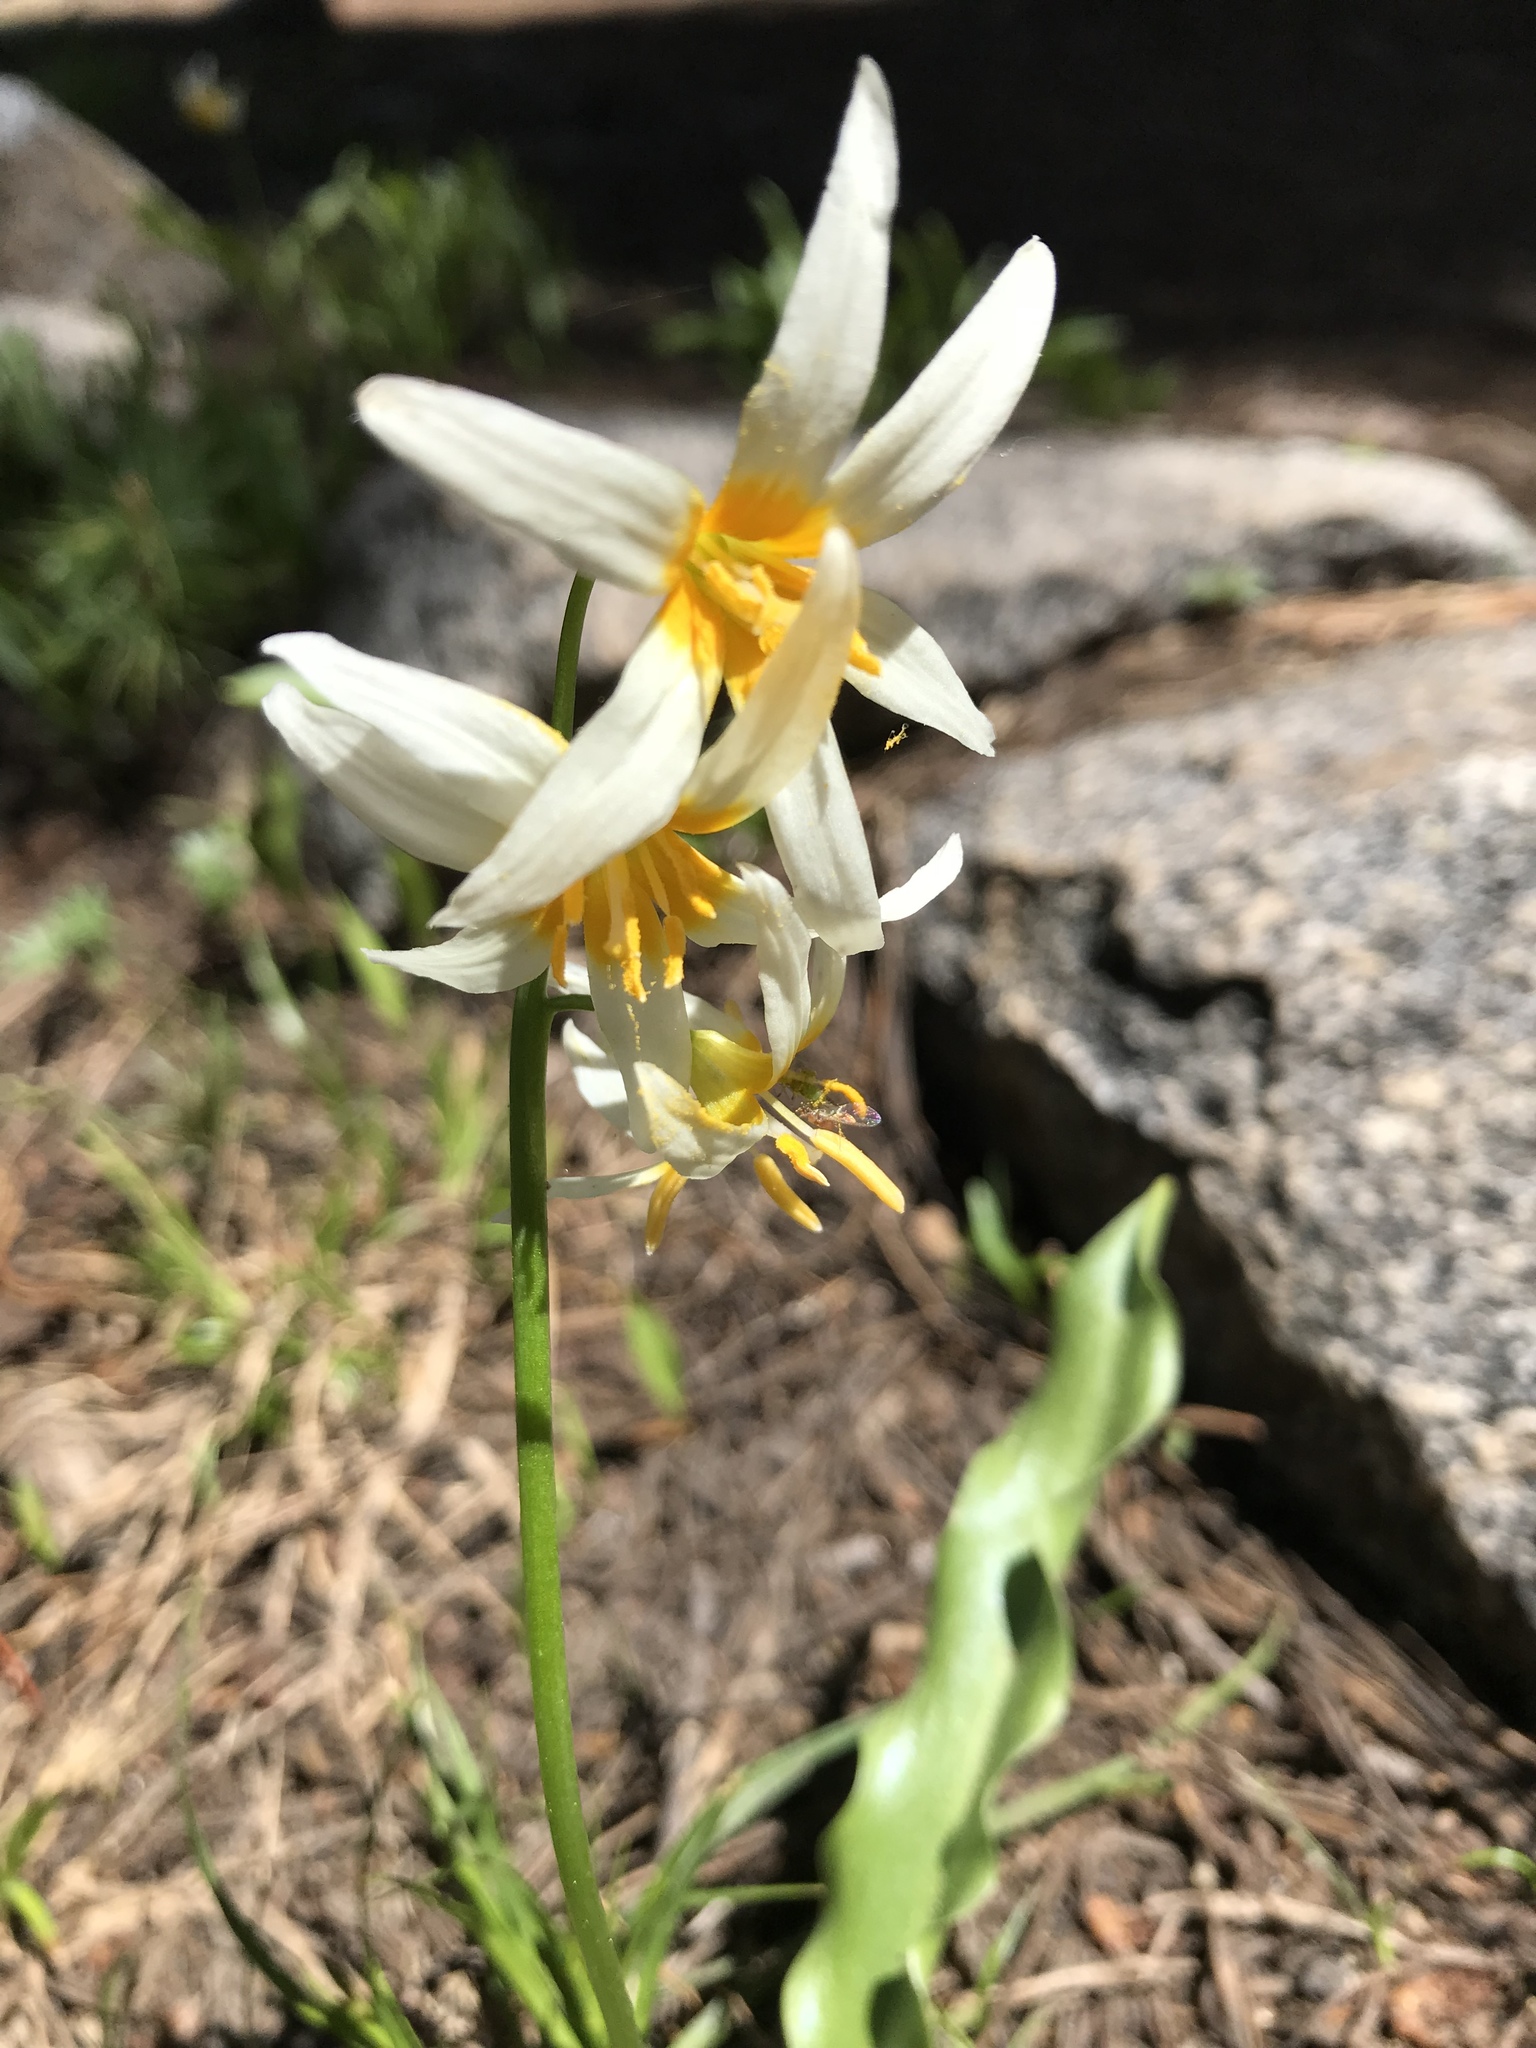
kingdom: Plantae
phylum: Tracheophyta
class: Liliopsida
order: Liliales
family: Liliaceae
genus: Erythronium
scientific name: Erythronium purpurascens
